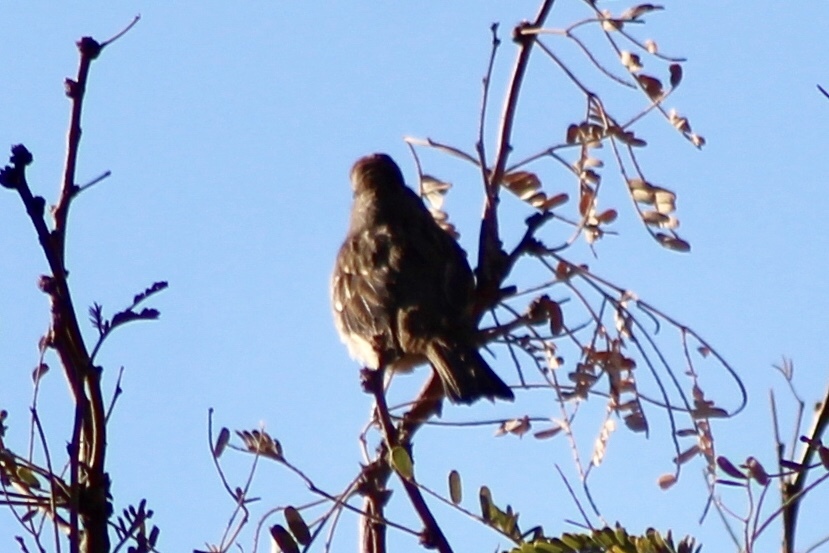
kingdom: Animalia
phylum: Chordata
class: Aves
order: Passeriformes
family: Passerellidae
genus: Zonotrichia
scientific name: Zonotrichia leucophrys
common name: White-crowned sparrow
